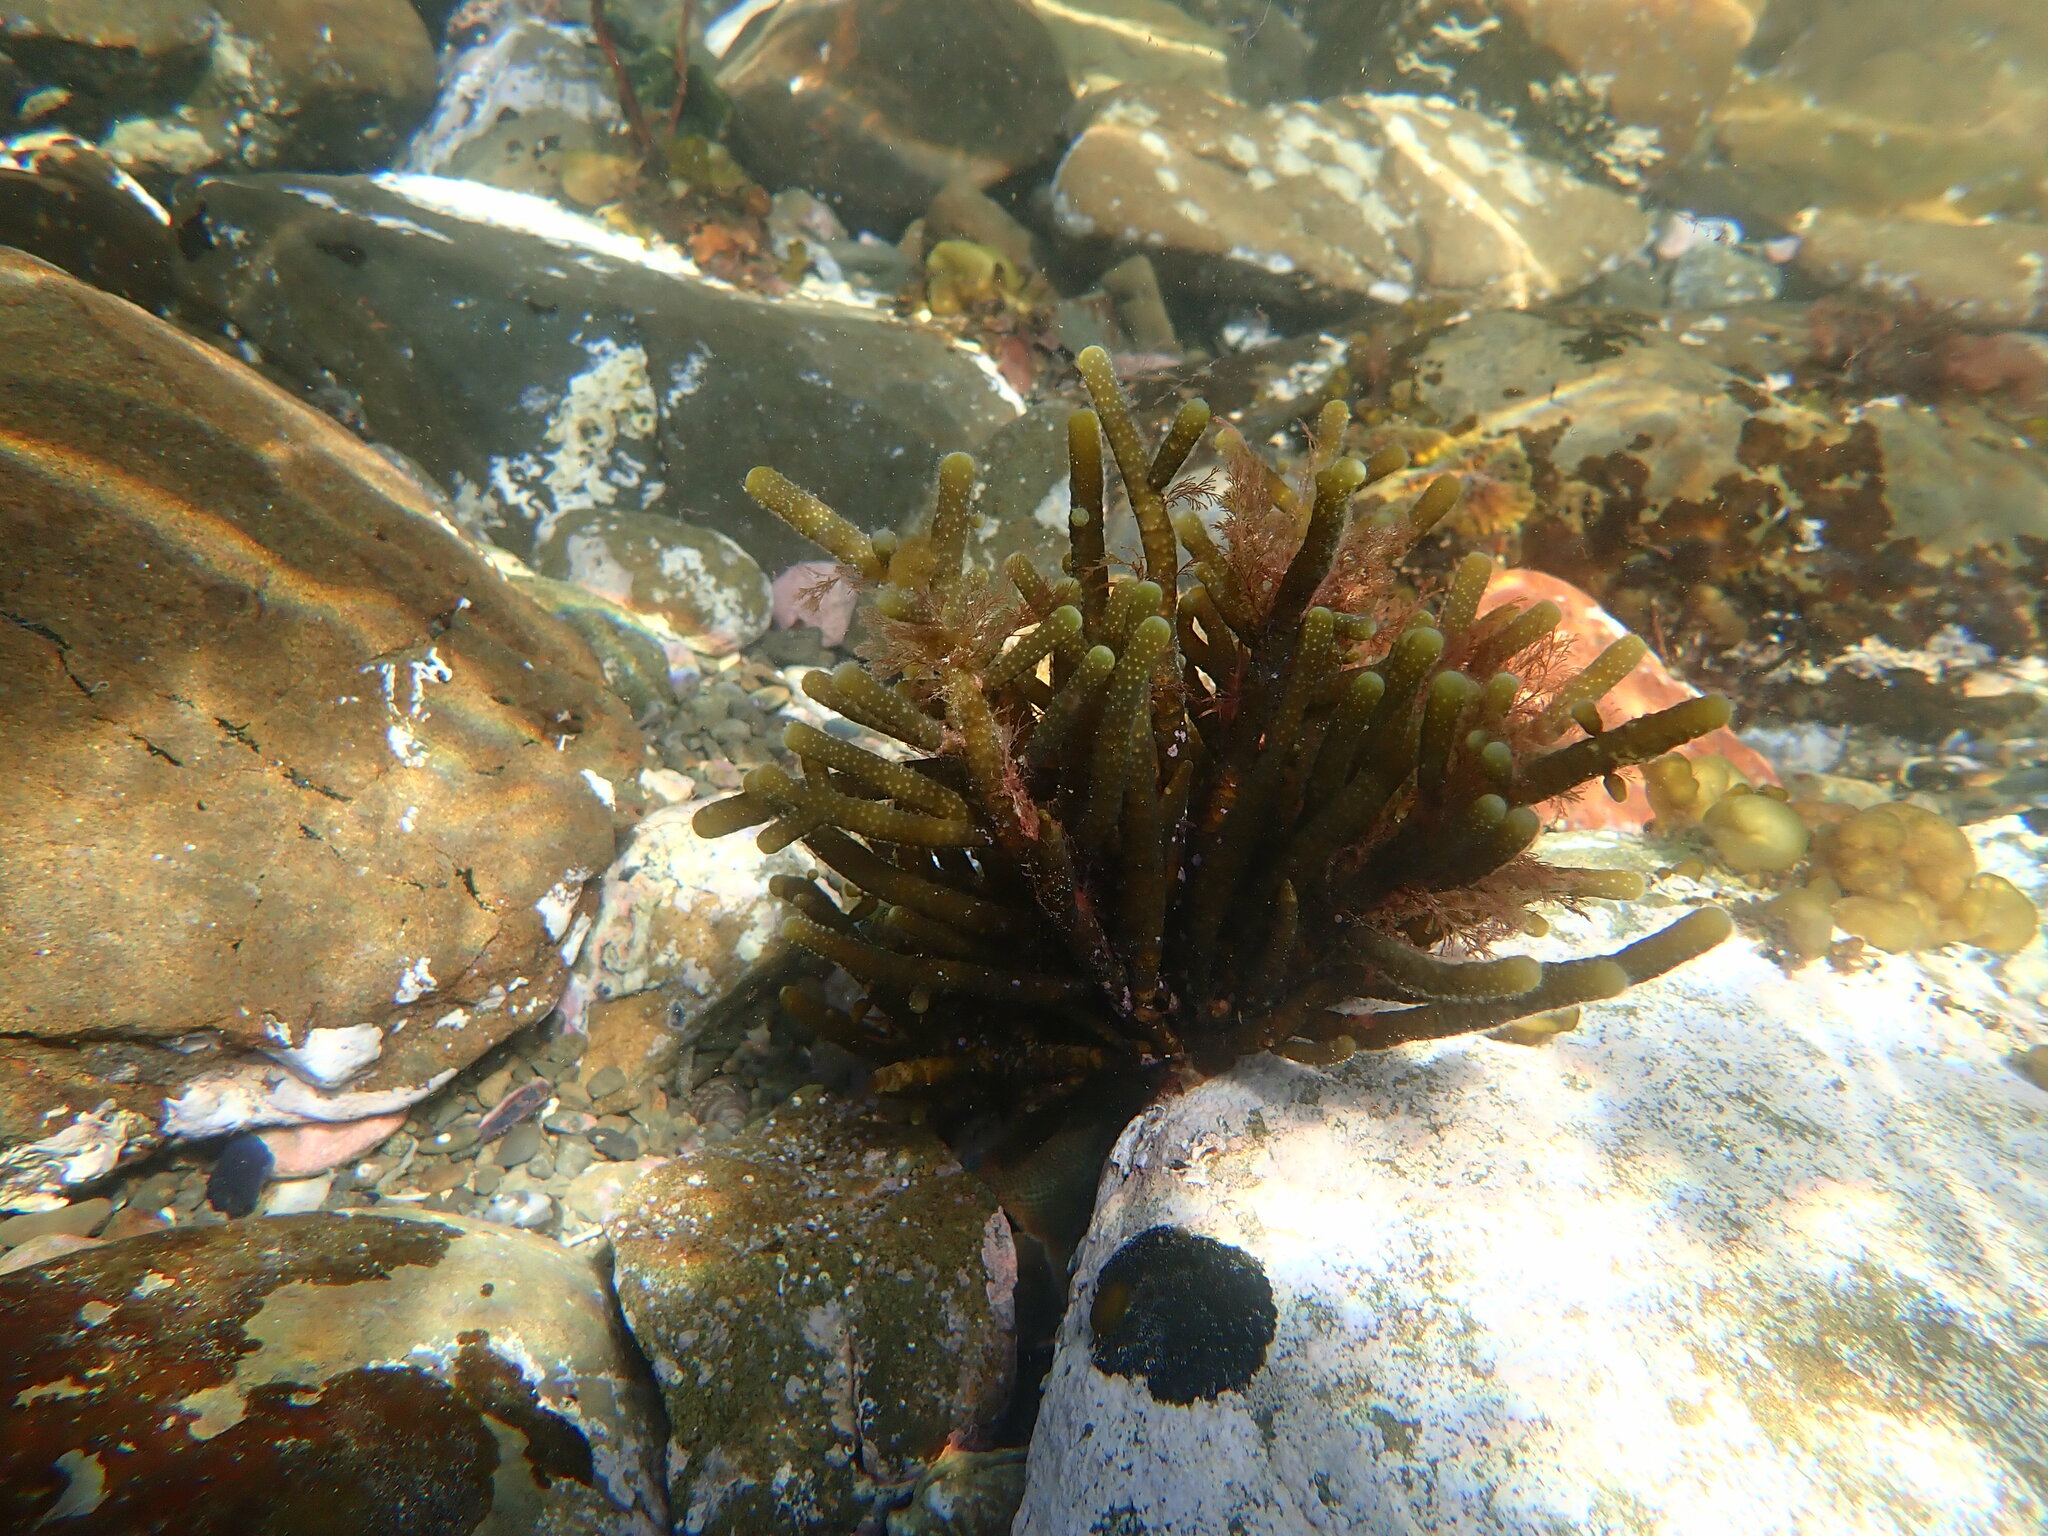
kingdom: Chromista
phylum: Ochrophyta
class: Phaeophyceae
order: Scytothamnales
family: Splachnidiaceae
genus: Splachnidium
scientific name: Splachnidium rugosum
